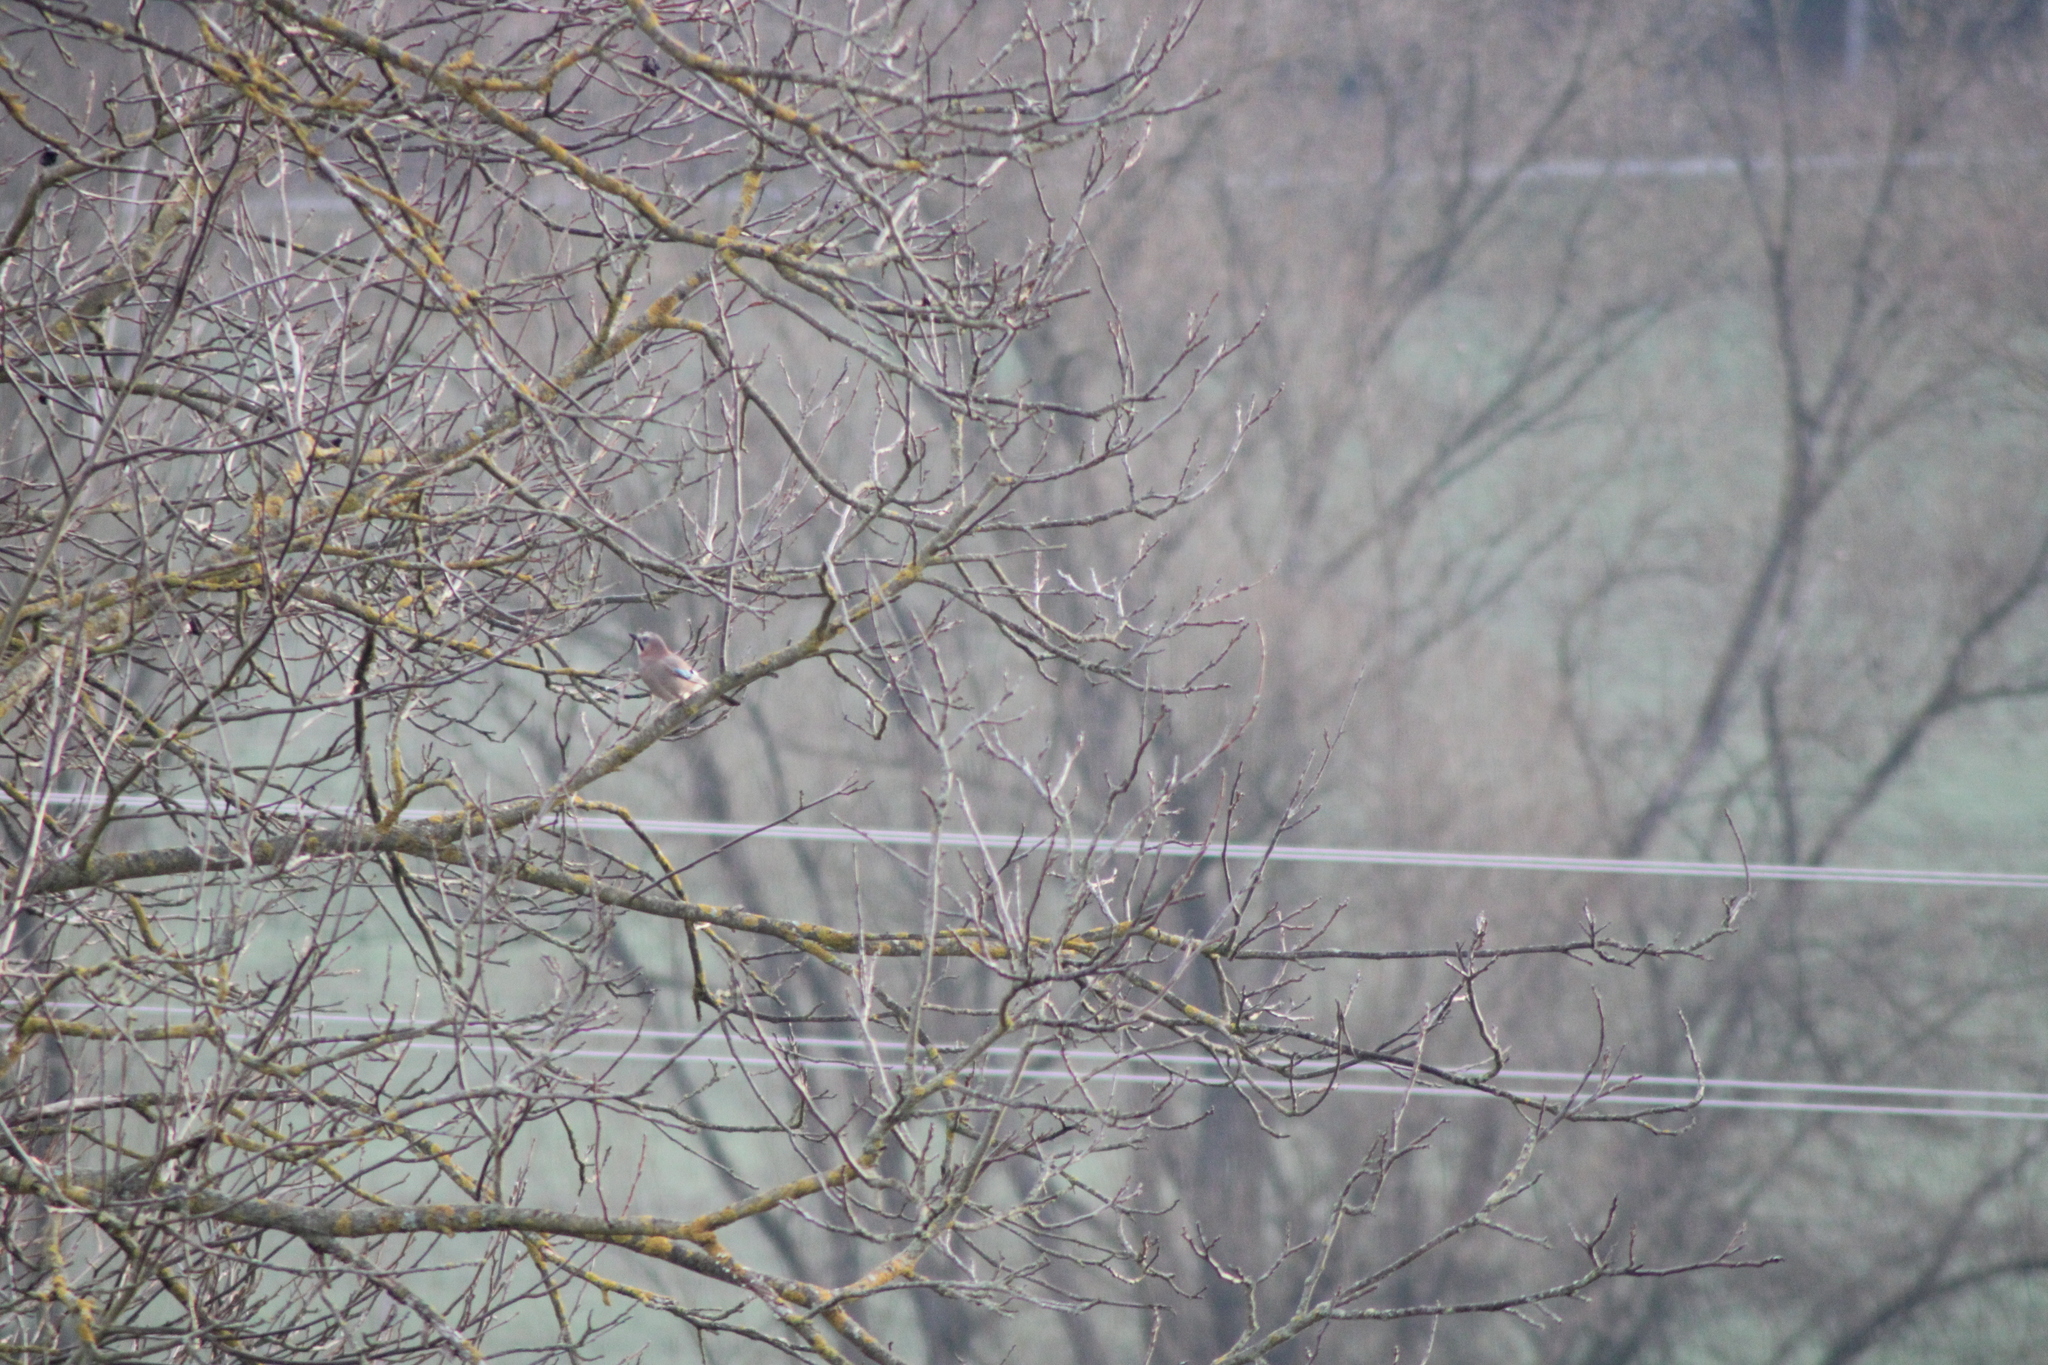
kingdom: Animalia
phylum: Chordata
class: Aves
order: Passeriformes
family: Corvidae
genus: Garrulus
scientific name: Garrulus glandarius
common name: Eurasian jay
